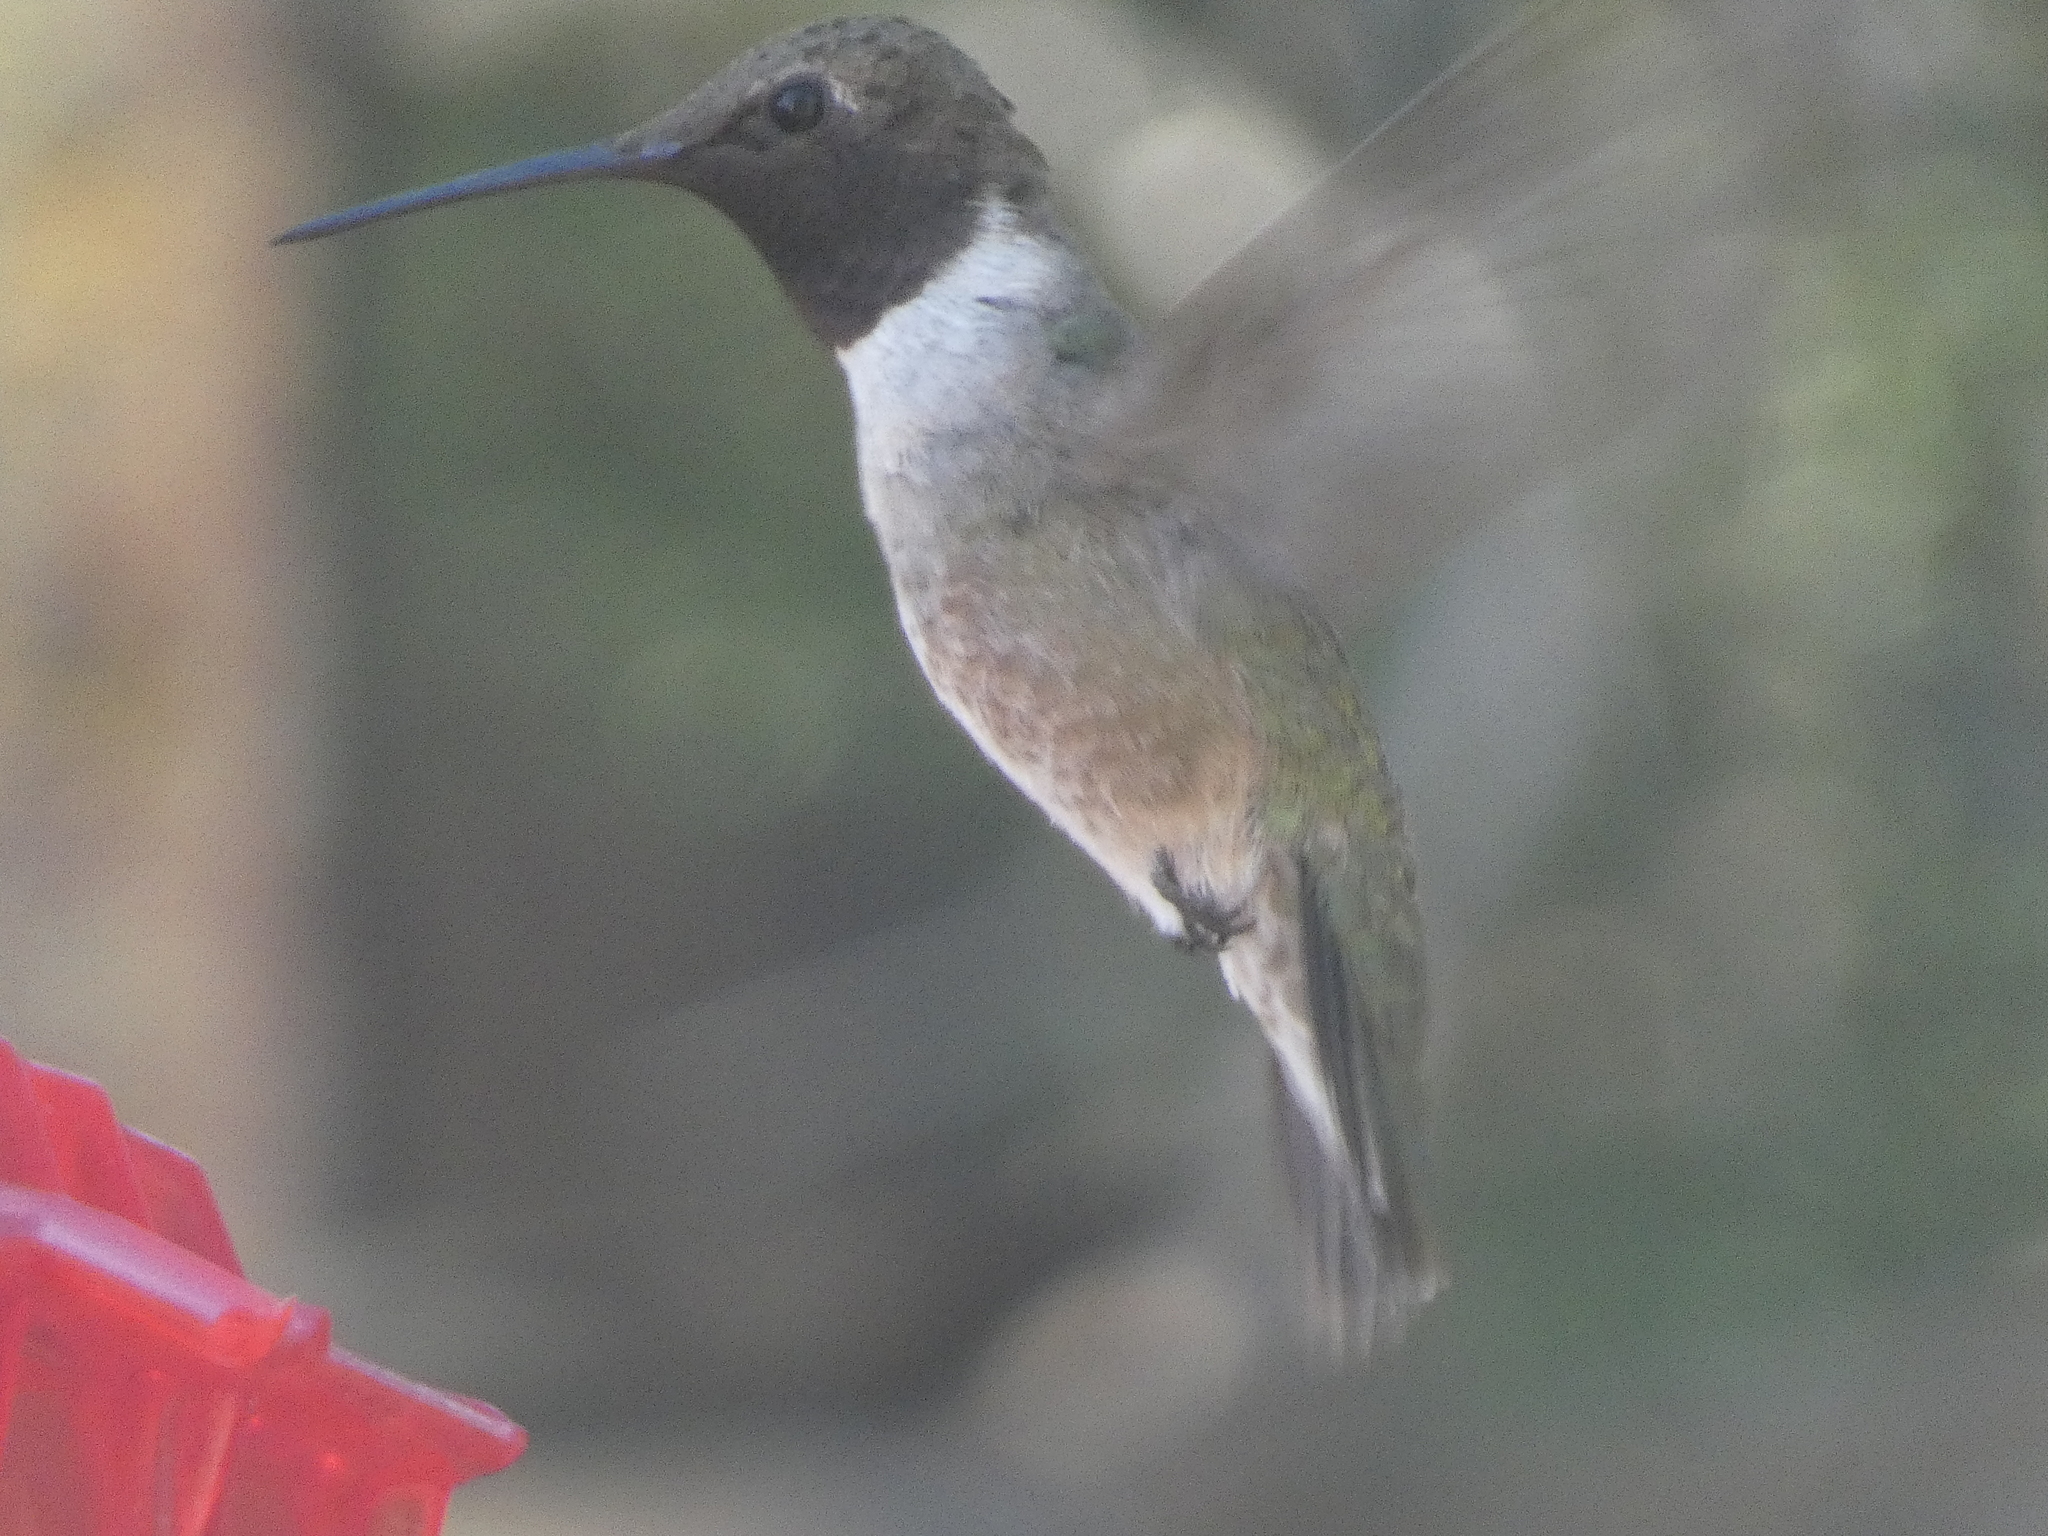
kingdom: Animalia
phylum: Chordata
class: Aves
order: Apodiformes
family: Trochilidae
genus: Archilochus
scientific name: Archilochus alexandri
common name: Black-chinned hummingbird
